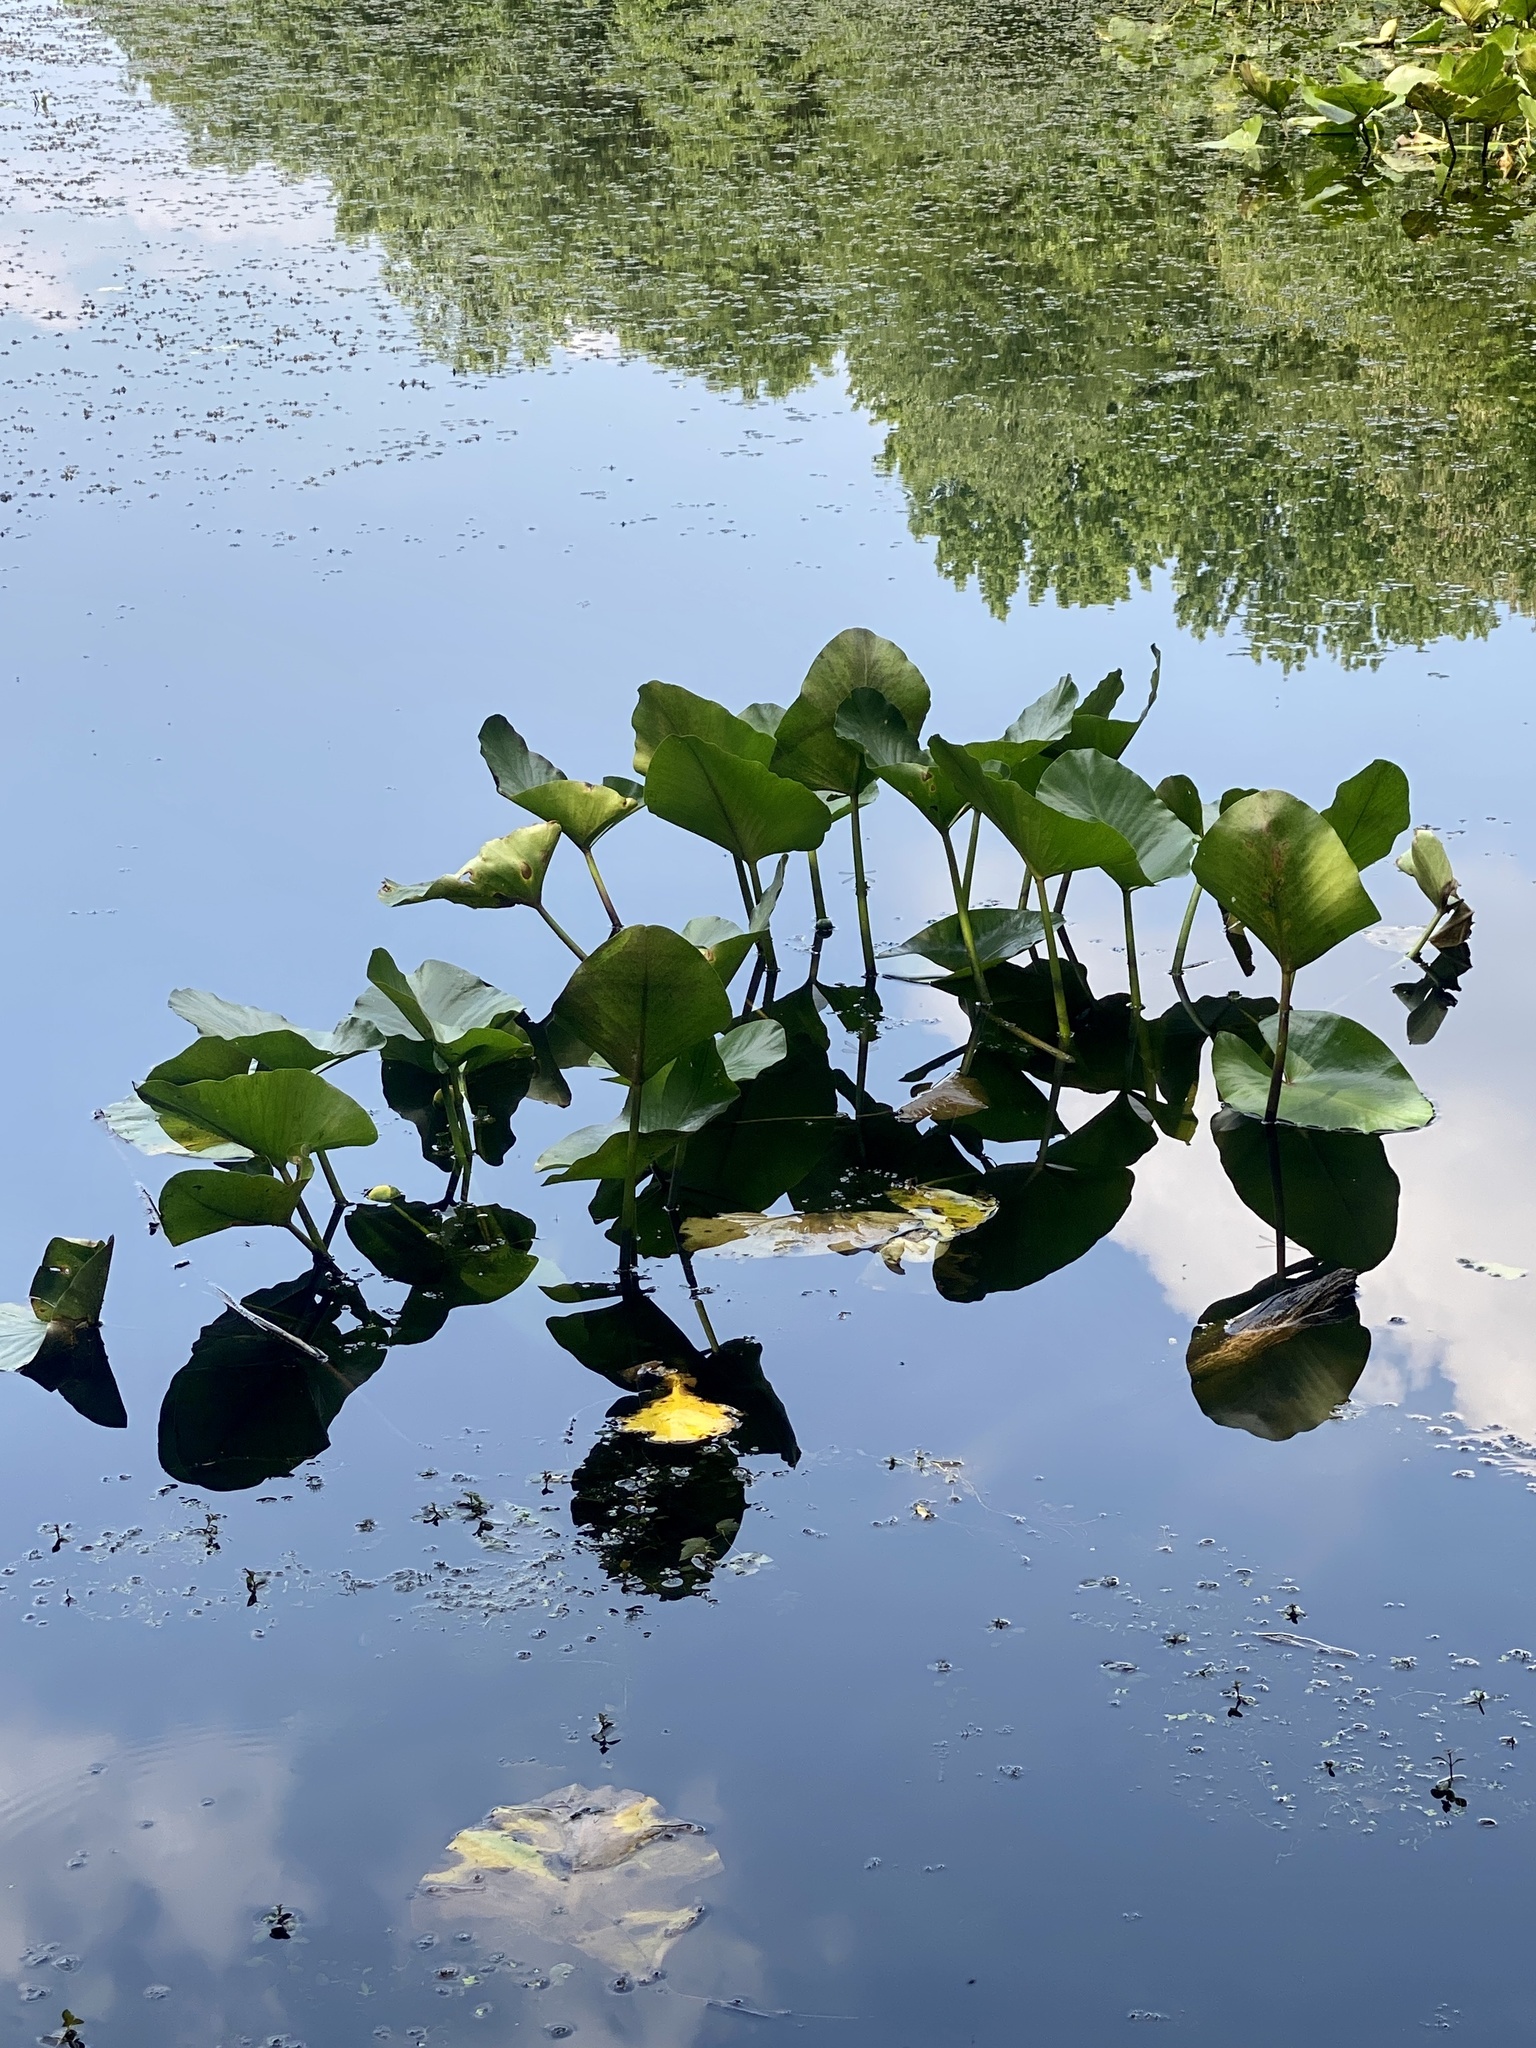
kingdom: Plantae
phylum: Tracheophyta
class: Magnoliopsida
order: Nymphaeales
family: Nymphaeaceae
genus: Nuphar
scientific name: Nuphar advena
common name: Spatter-dock
